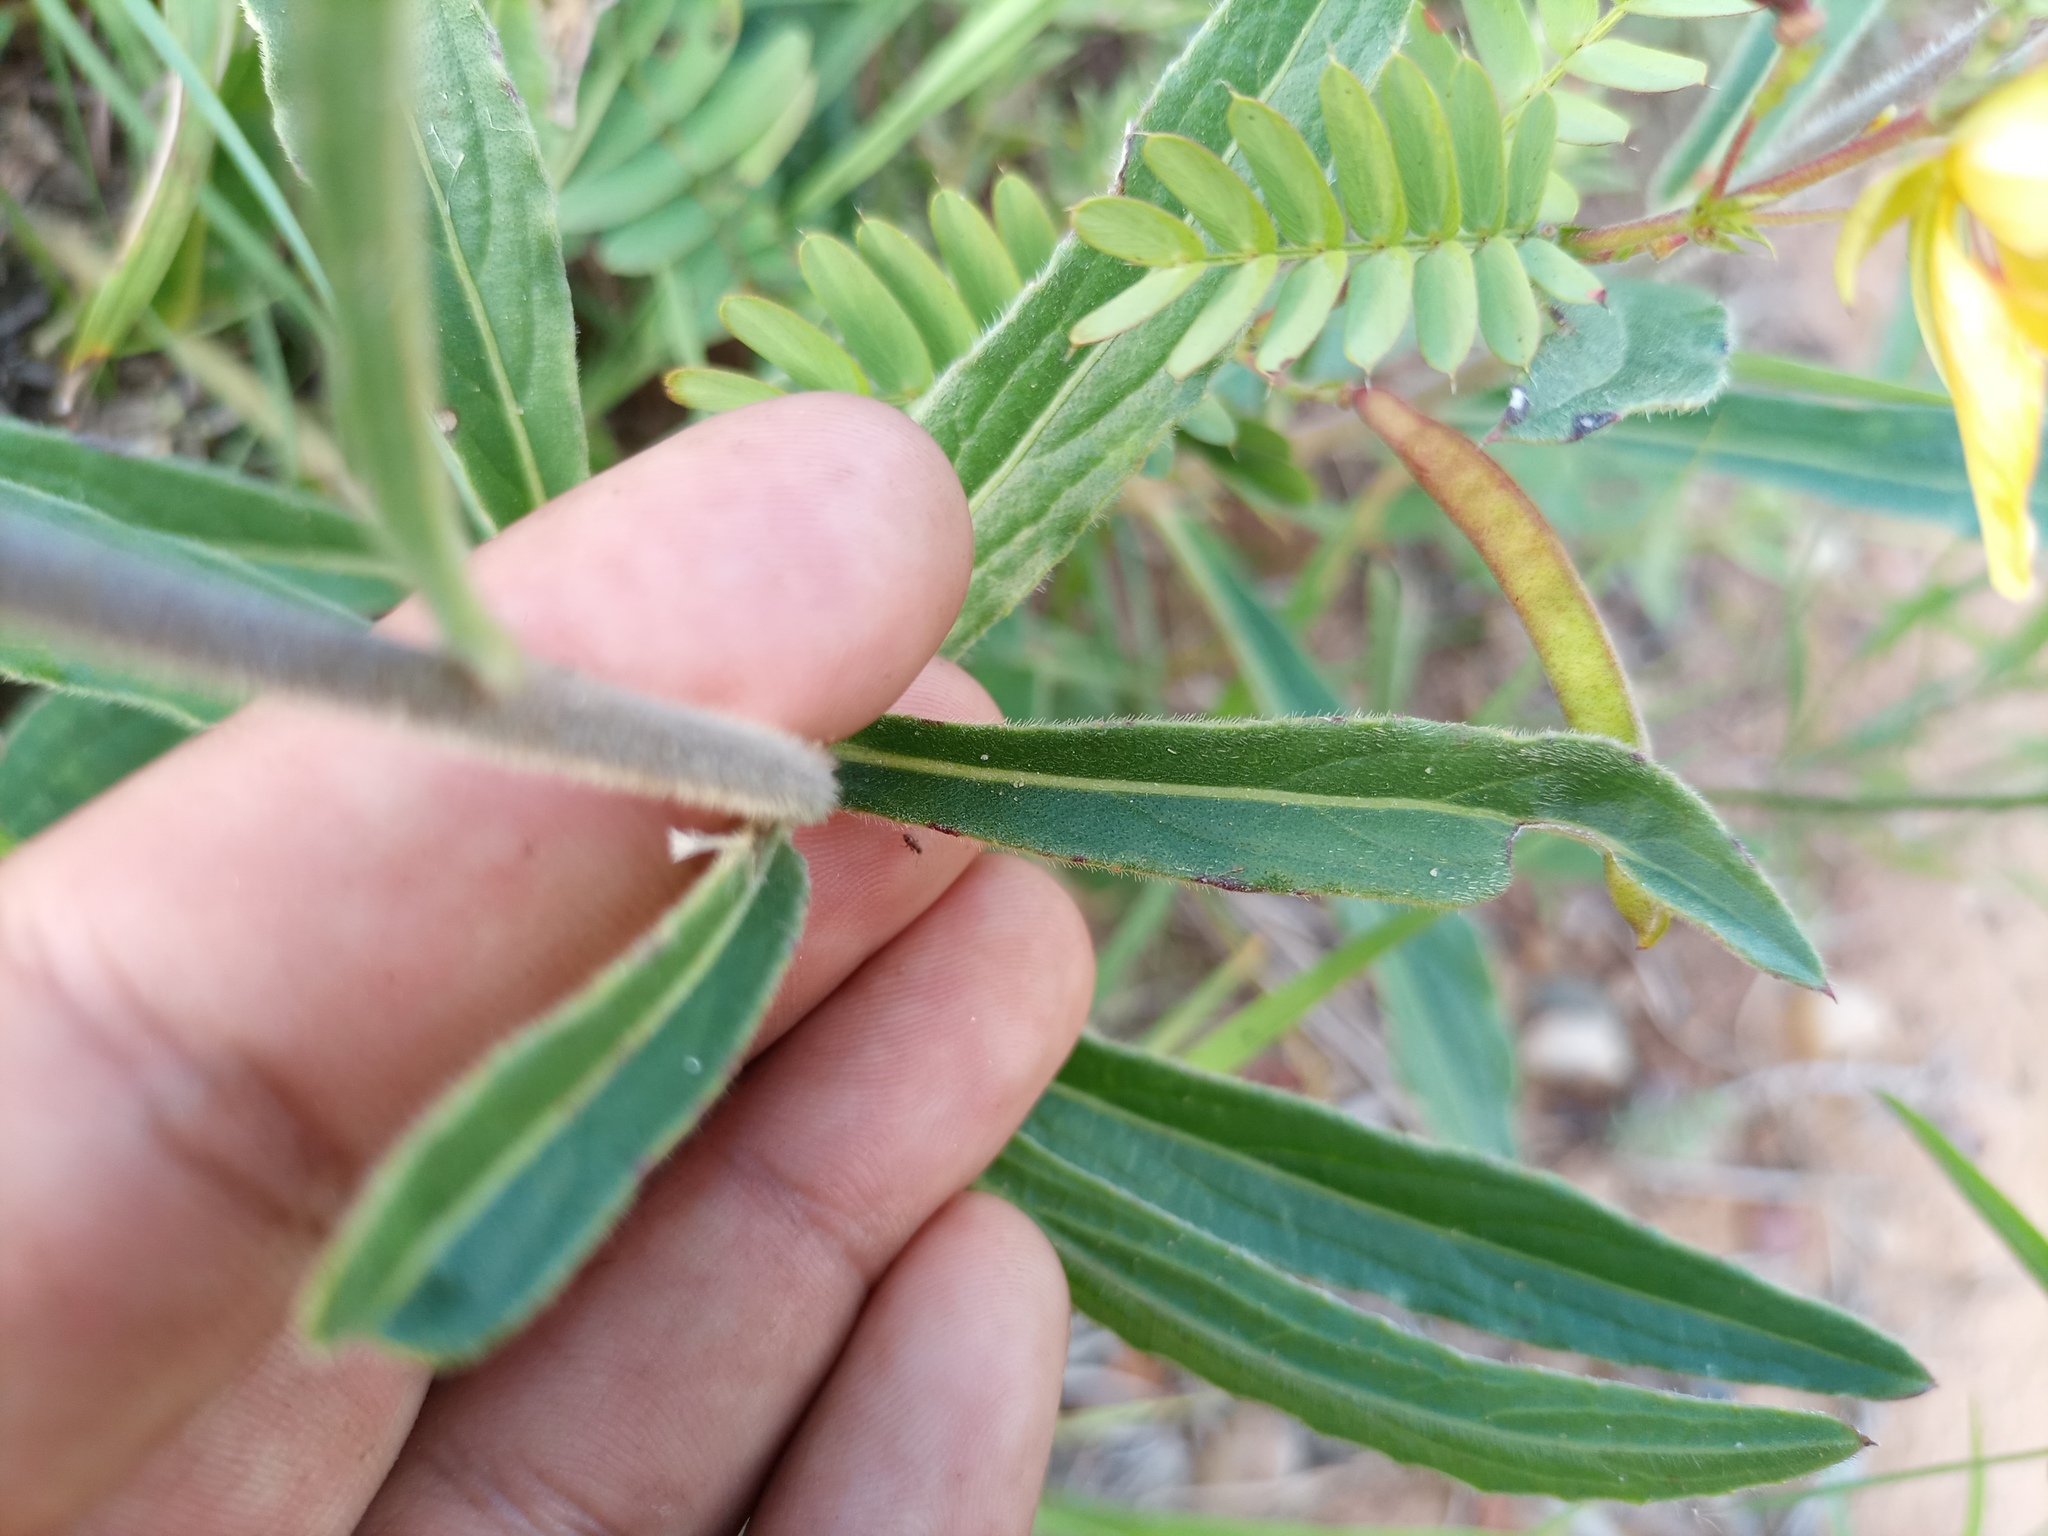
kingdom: Plantae
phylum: Tracheophyta
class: Magnoliopsida
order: Asterales
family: Asteraceae
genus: Chrysolaena
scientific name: Chrysolaena flexuosa
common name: Zig-zag vernonia
